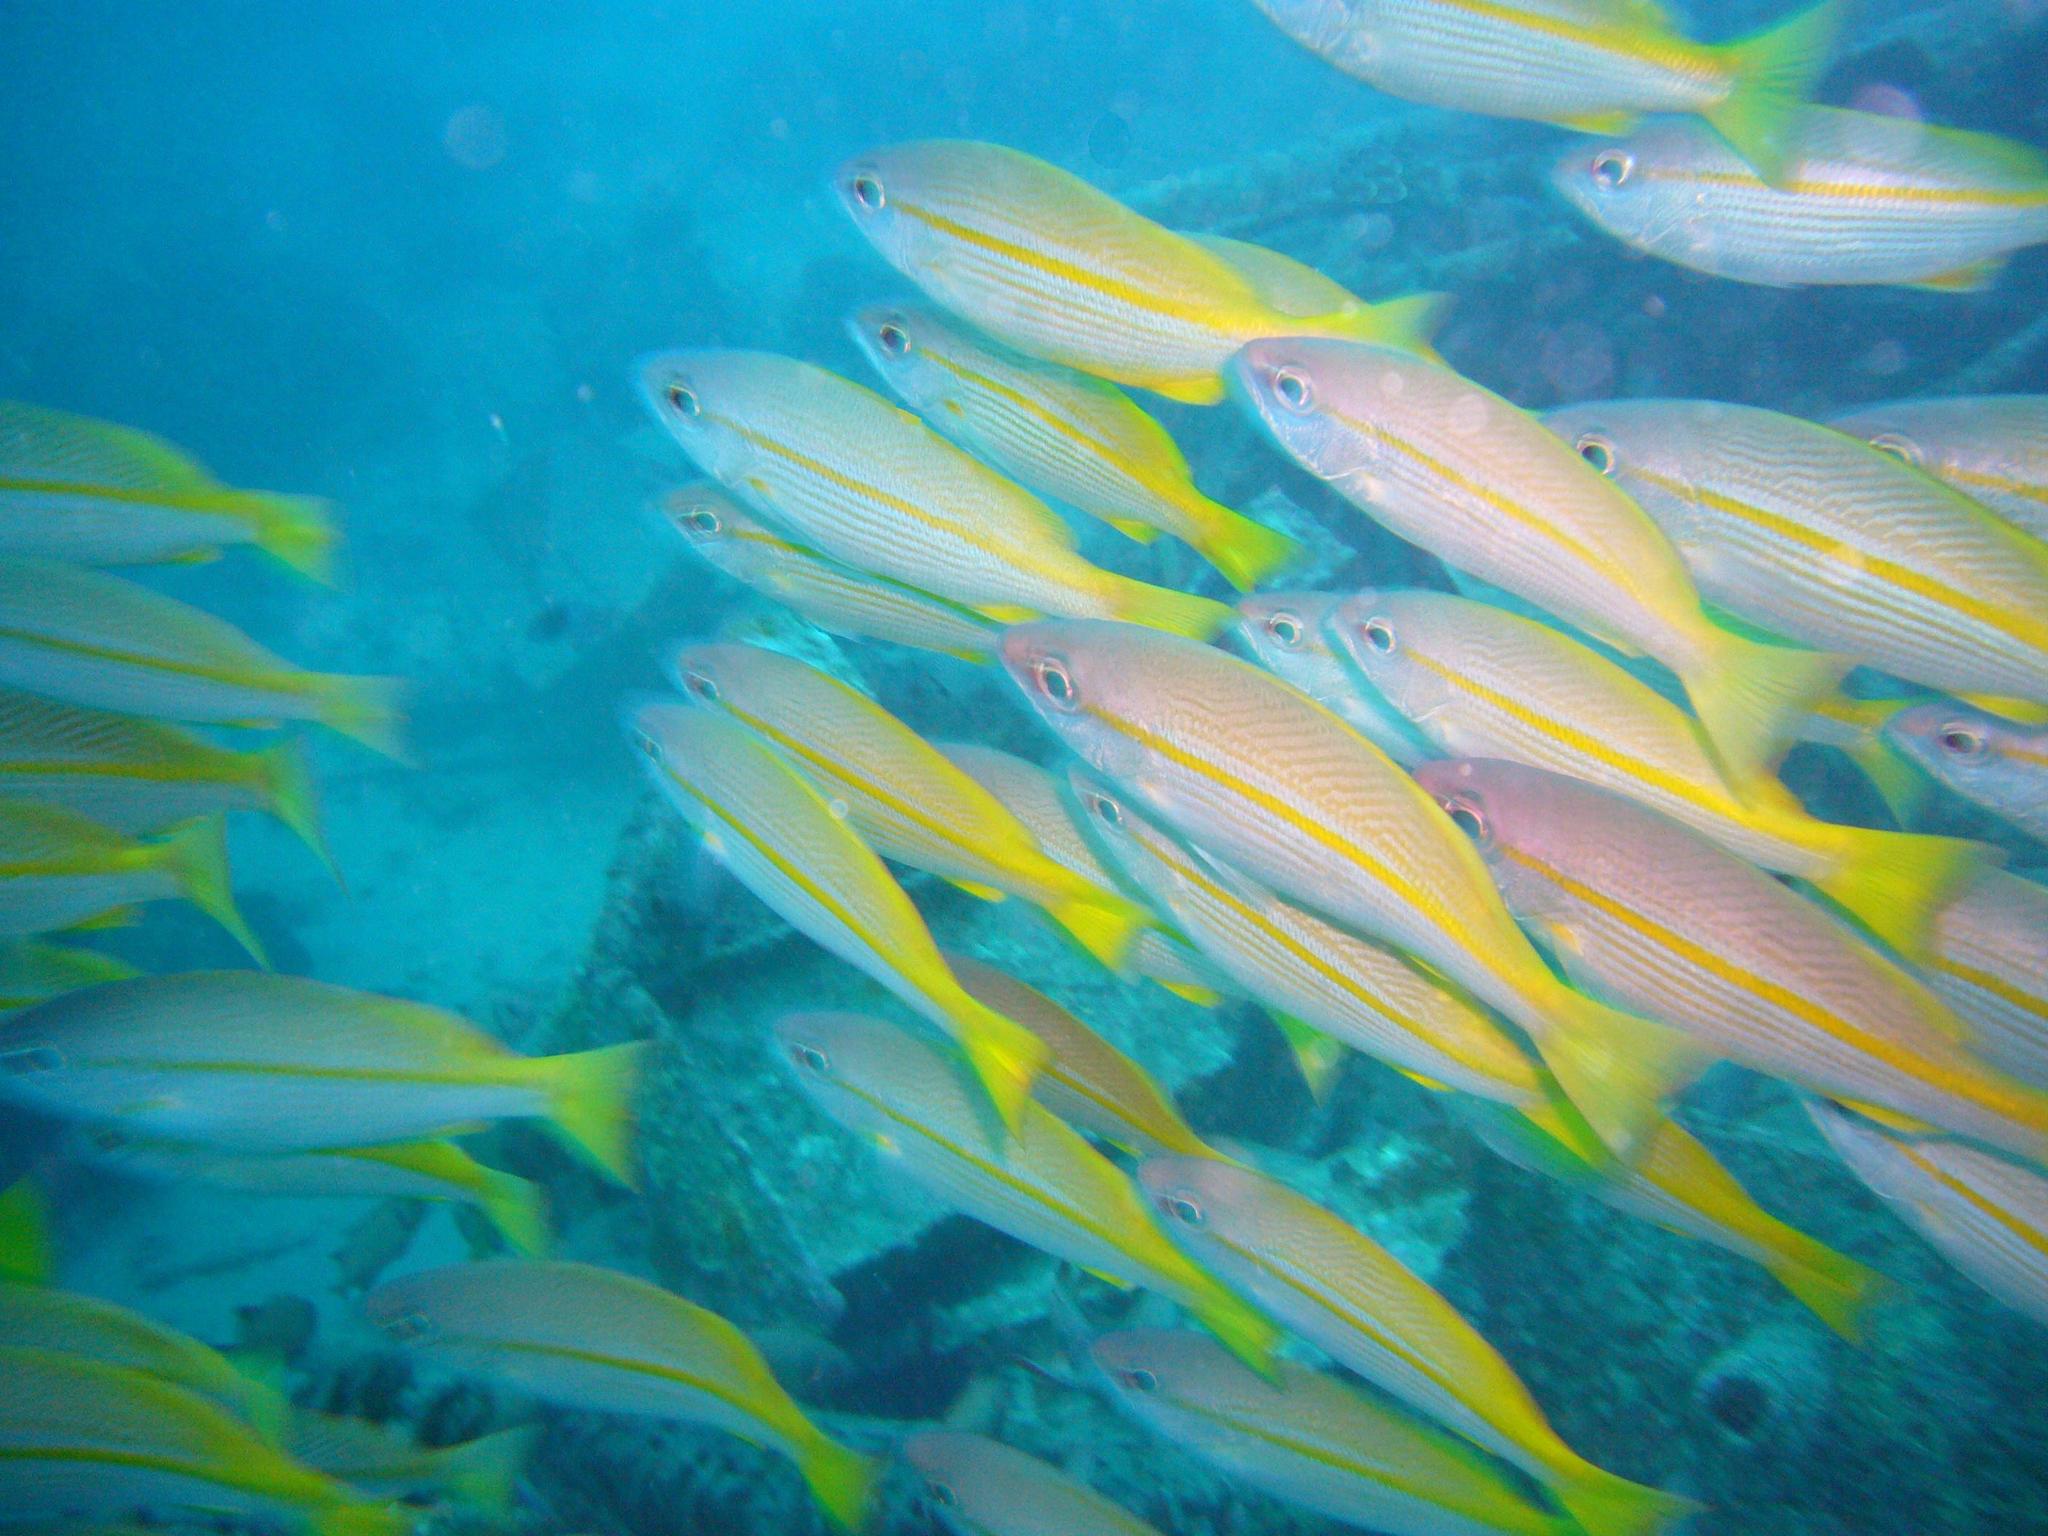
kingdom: Animalia
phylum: Chordata
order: Perciformes
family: Lutjanidae
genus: Lutjanus
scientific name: Lutjanus lutjanus
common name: Bigeye snapper
